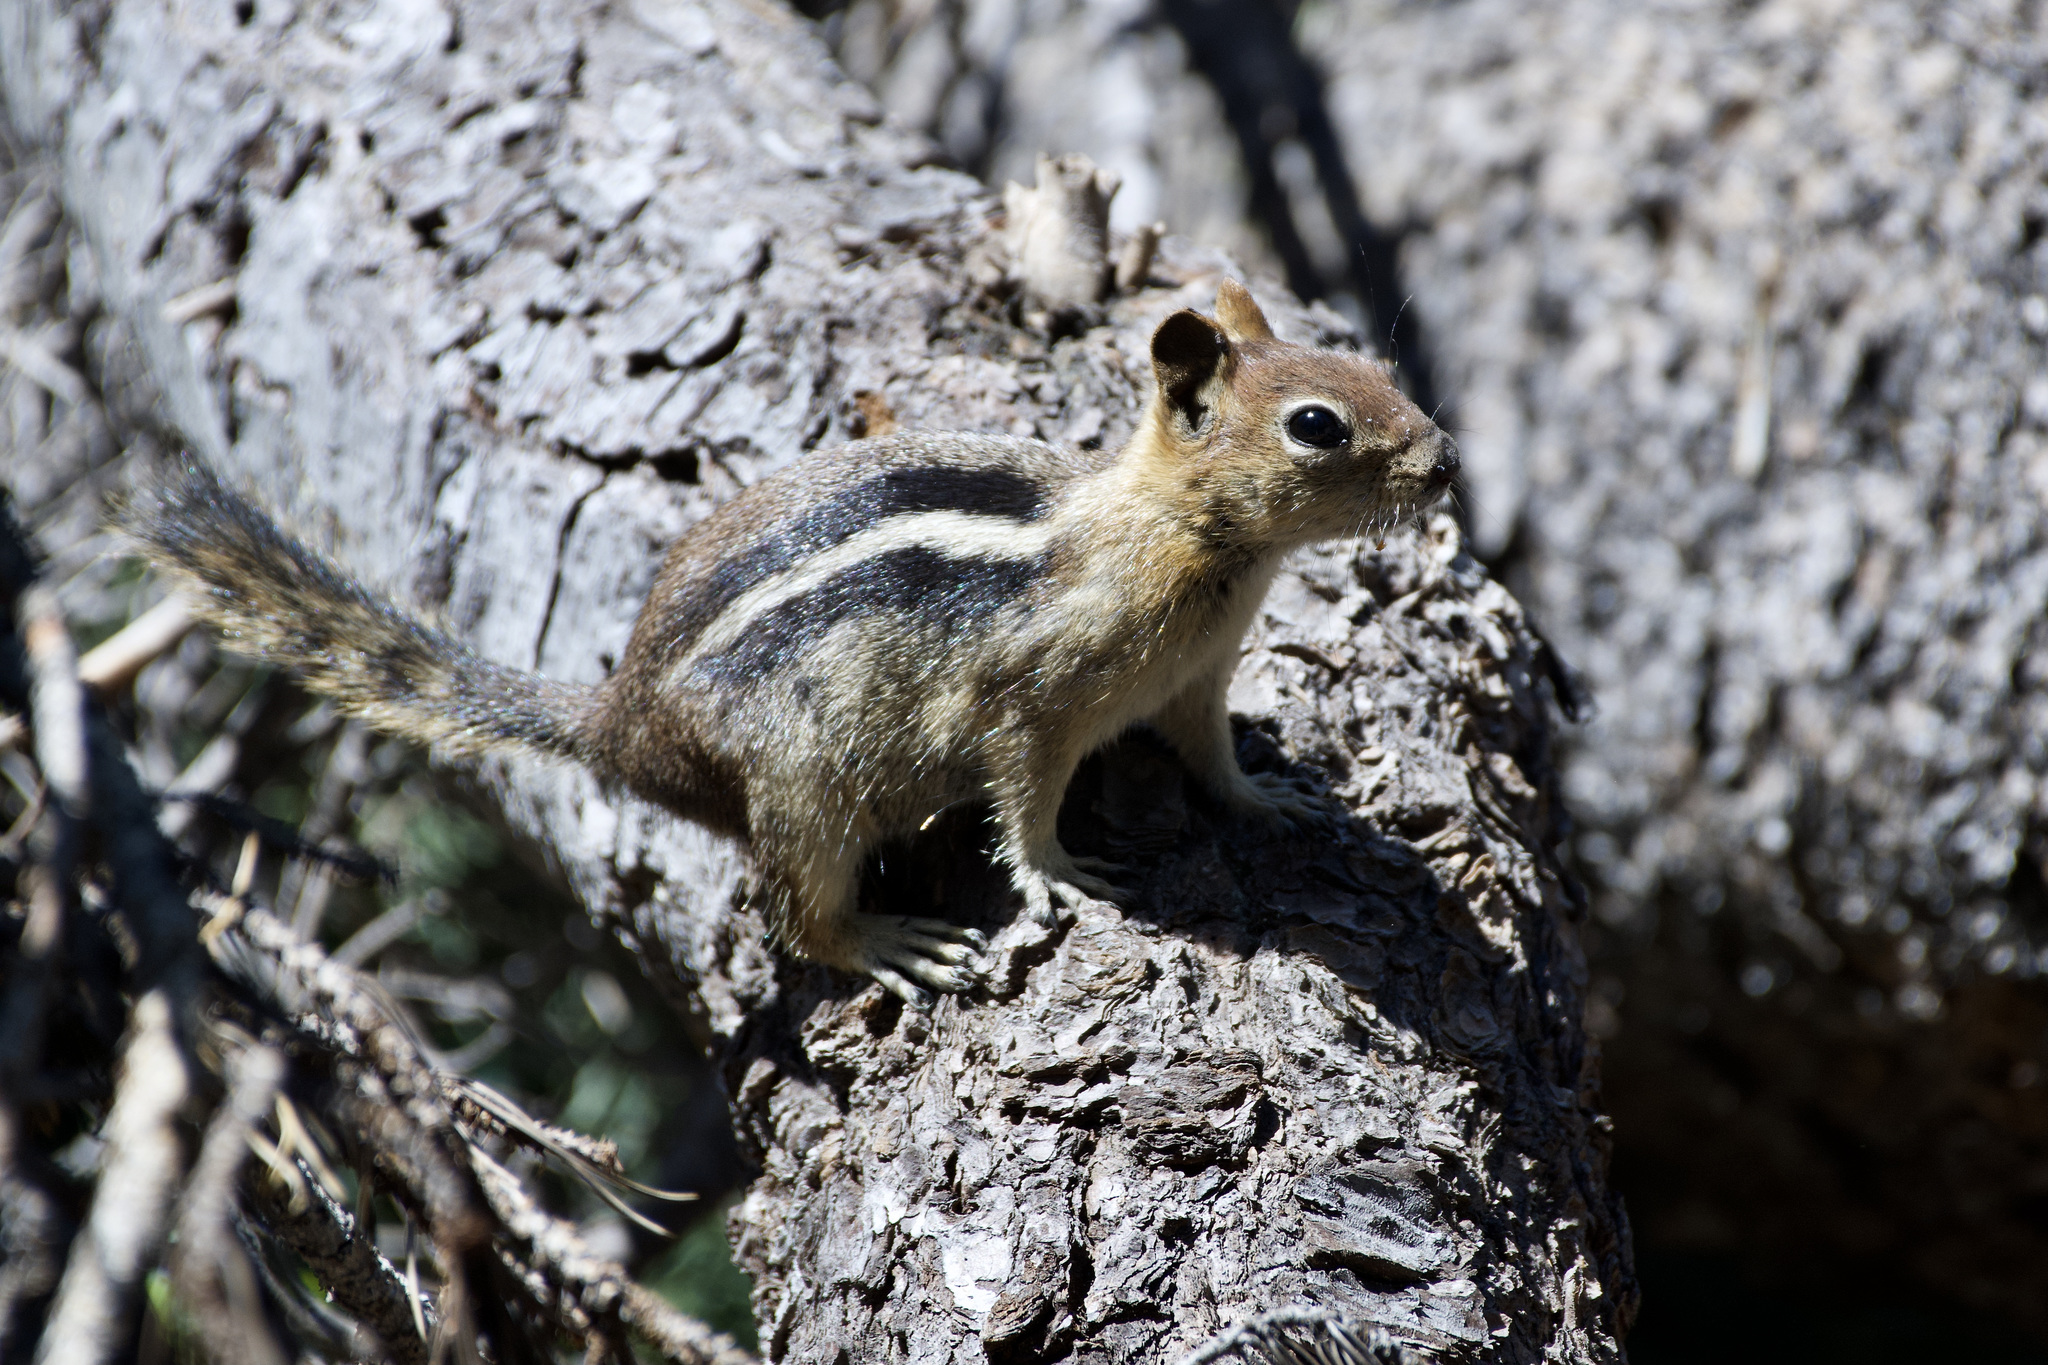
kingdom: Animalia
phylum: Chordata
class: Mammalia
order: Rodentia
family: Sciuridae
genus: Callospermophilus
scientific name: Callospermophilus lateralis
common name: Golden-mantled ground squirrel
